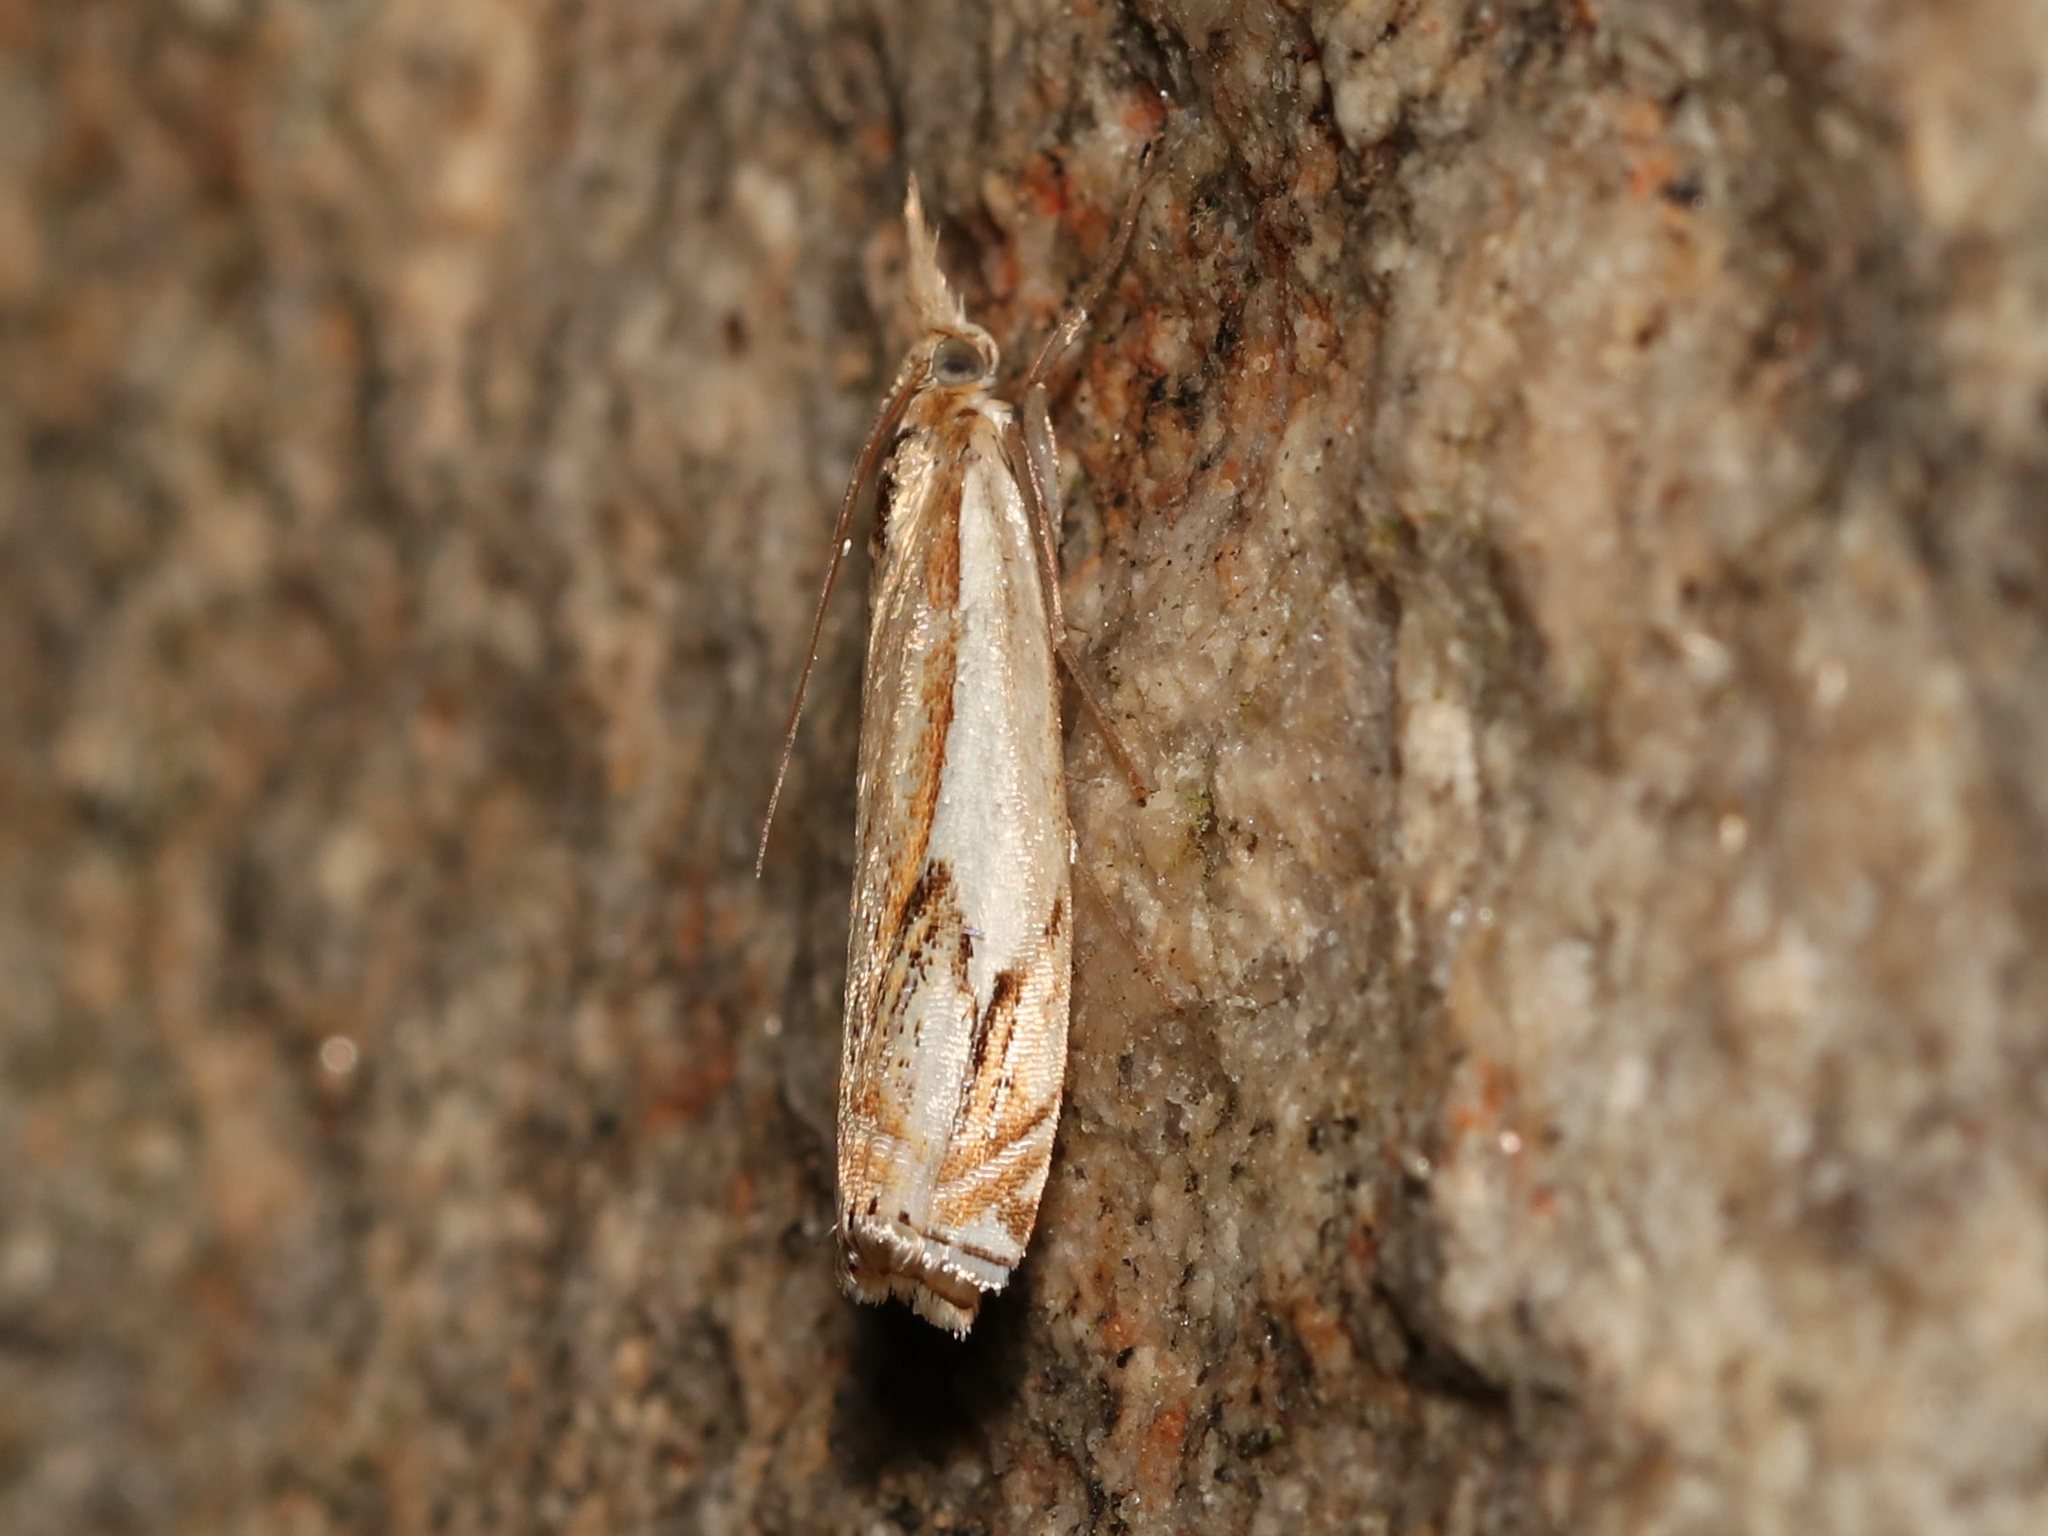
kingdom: Animalia
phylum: Arthropoda
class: Insecta
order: Lepidoptera
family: Crambidae
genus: Crambus
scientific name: Crambus agitatellus
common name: Double-banded grass-veneer
